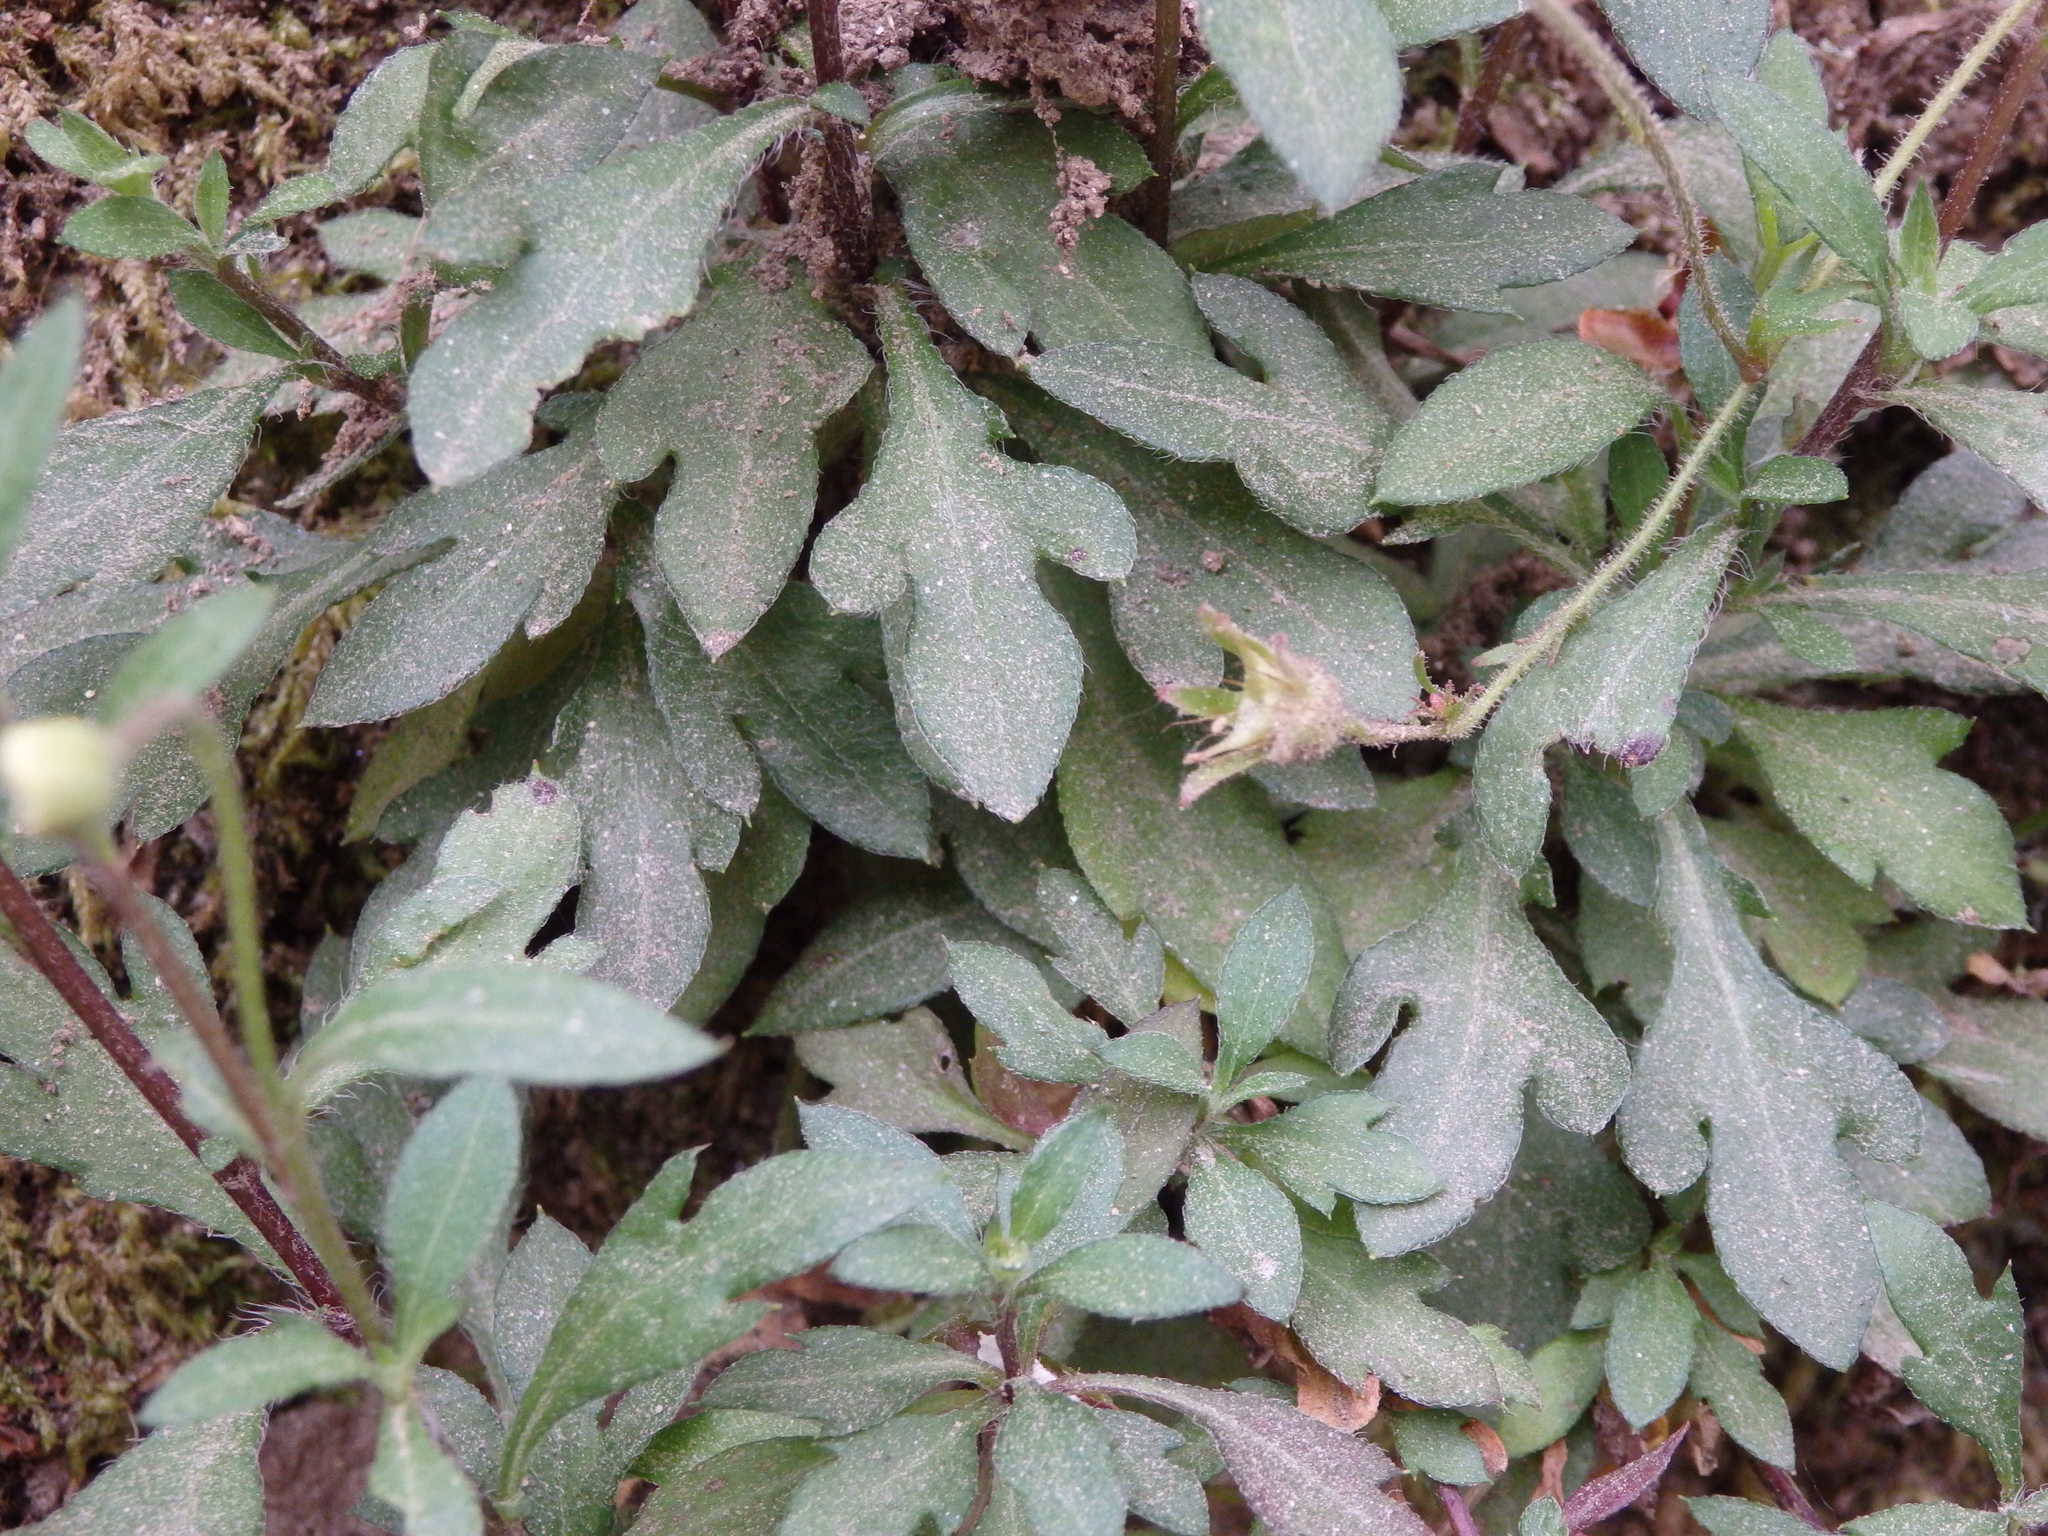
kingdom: Plantae
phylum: Tracheophyta
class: Magnoliopsida
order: Asterales
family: Asteraceae
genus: Erigeron
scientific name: Erigeron karvinskianus
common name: Mexican fleabane
